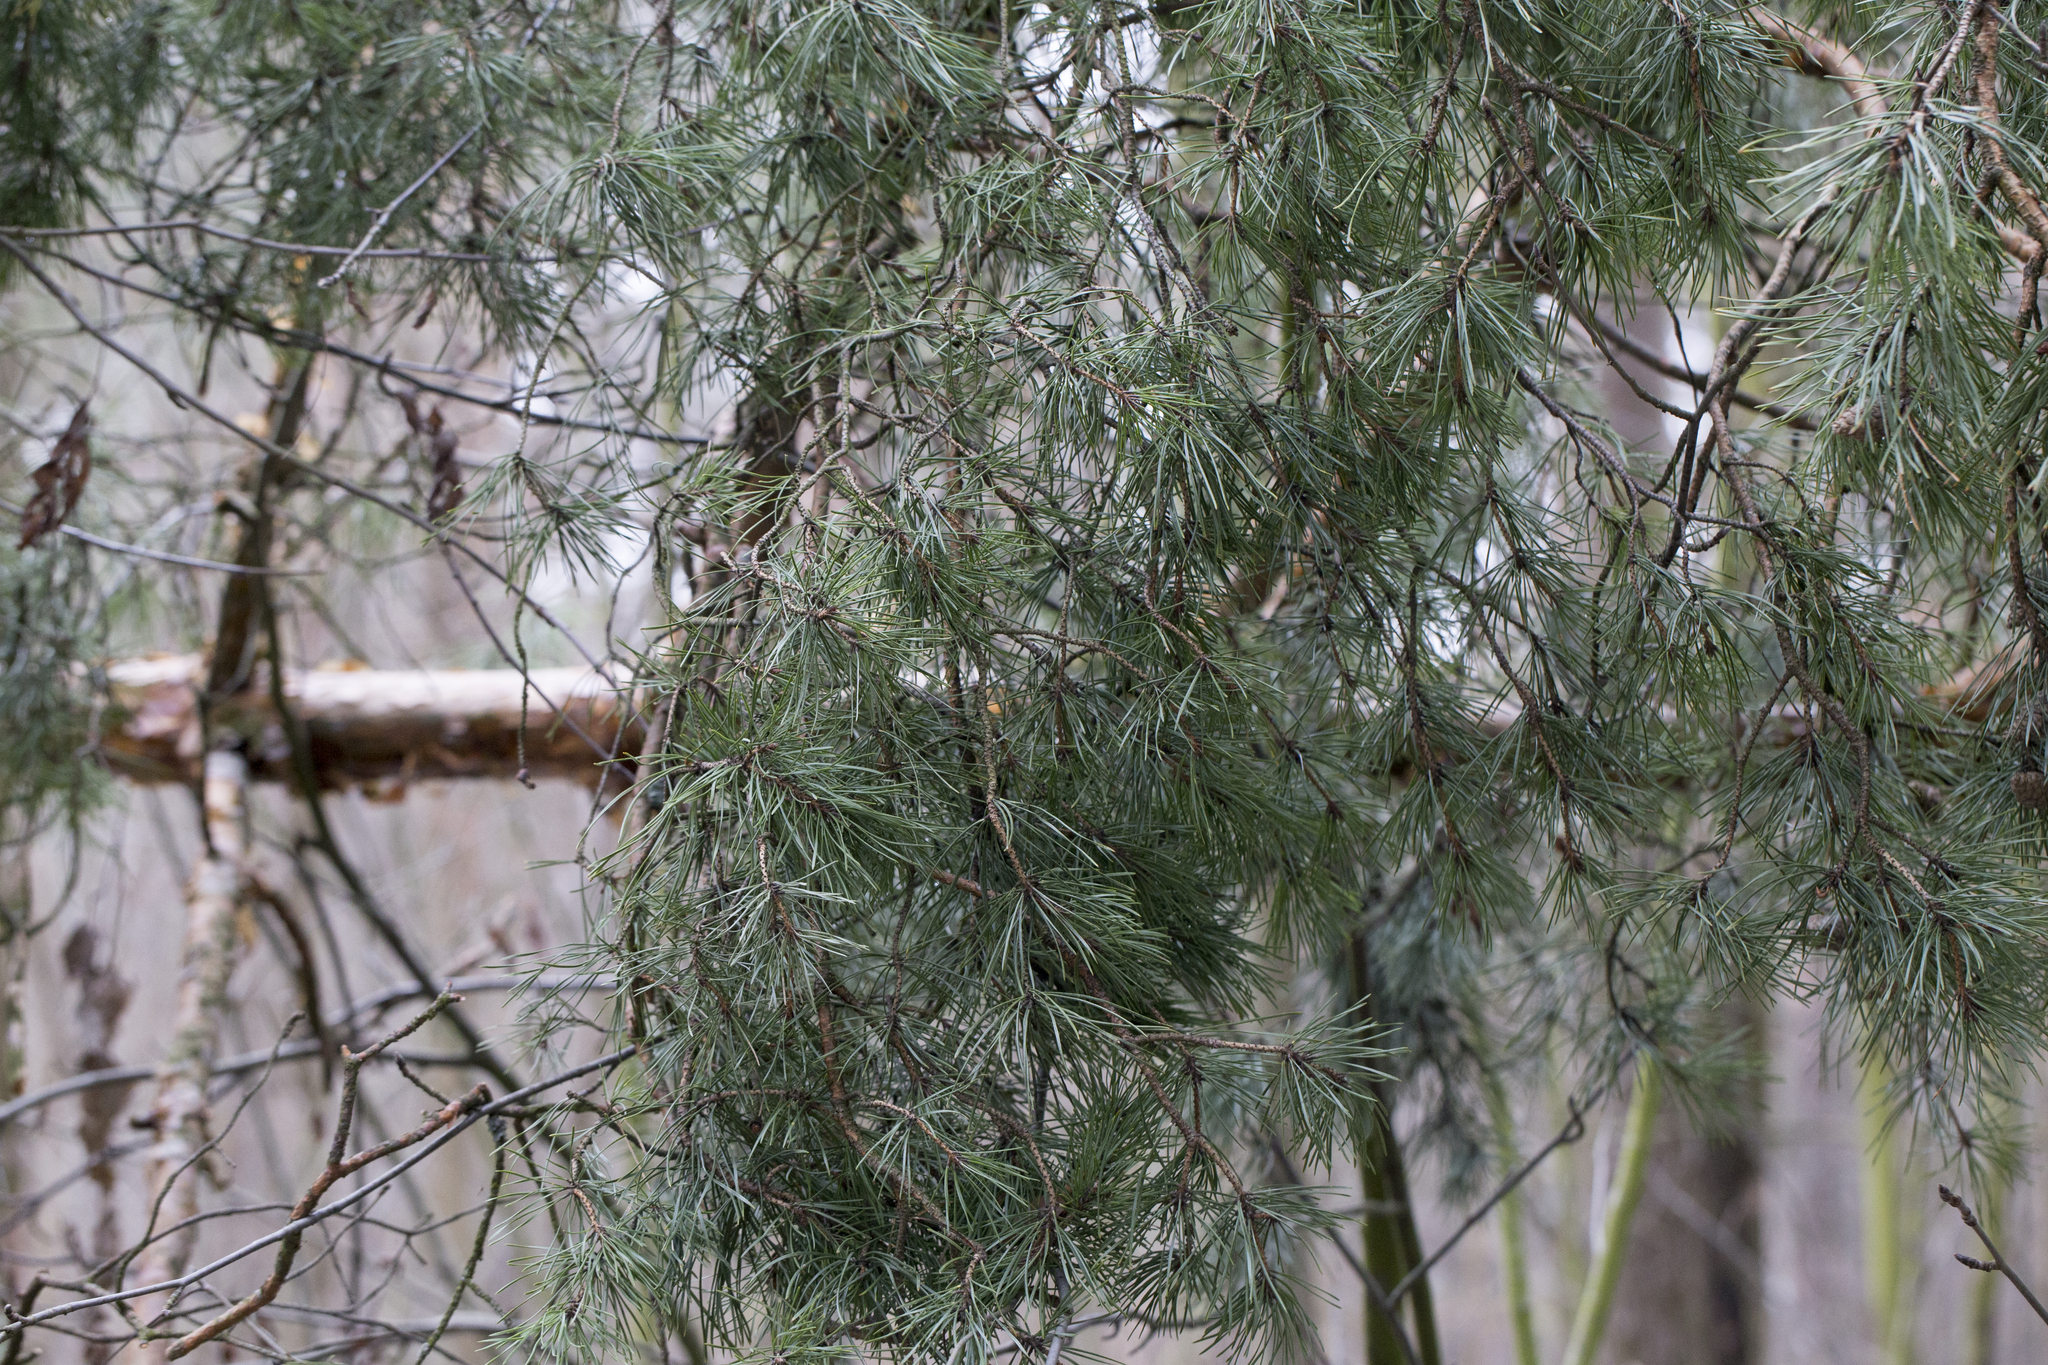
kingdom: Plantae
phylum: Tracheophyta
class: Pinopsida
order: Pinales
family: Pinaceae
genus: Pinus
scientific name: Pinus sylvestris
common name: Scots pine
